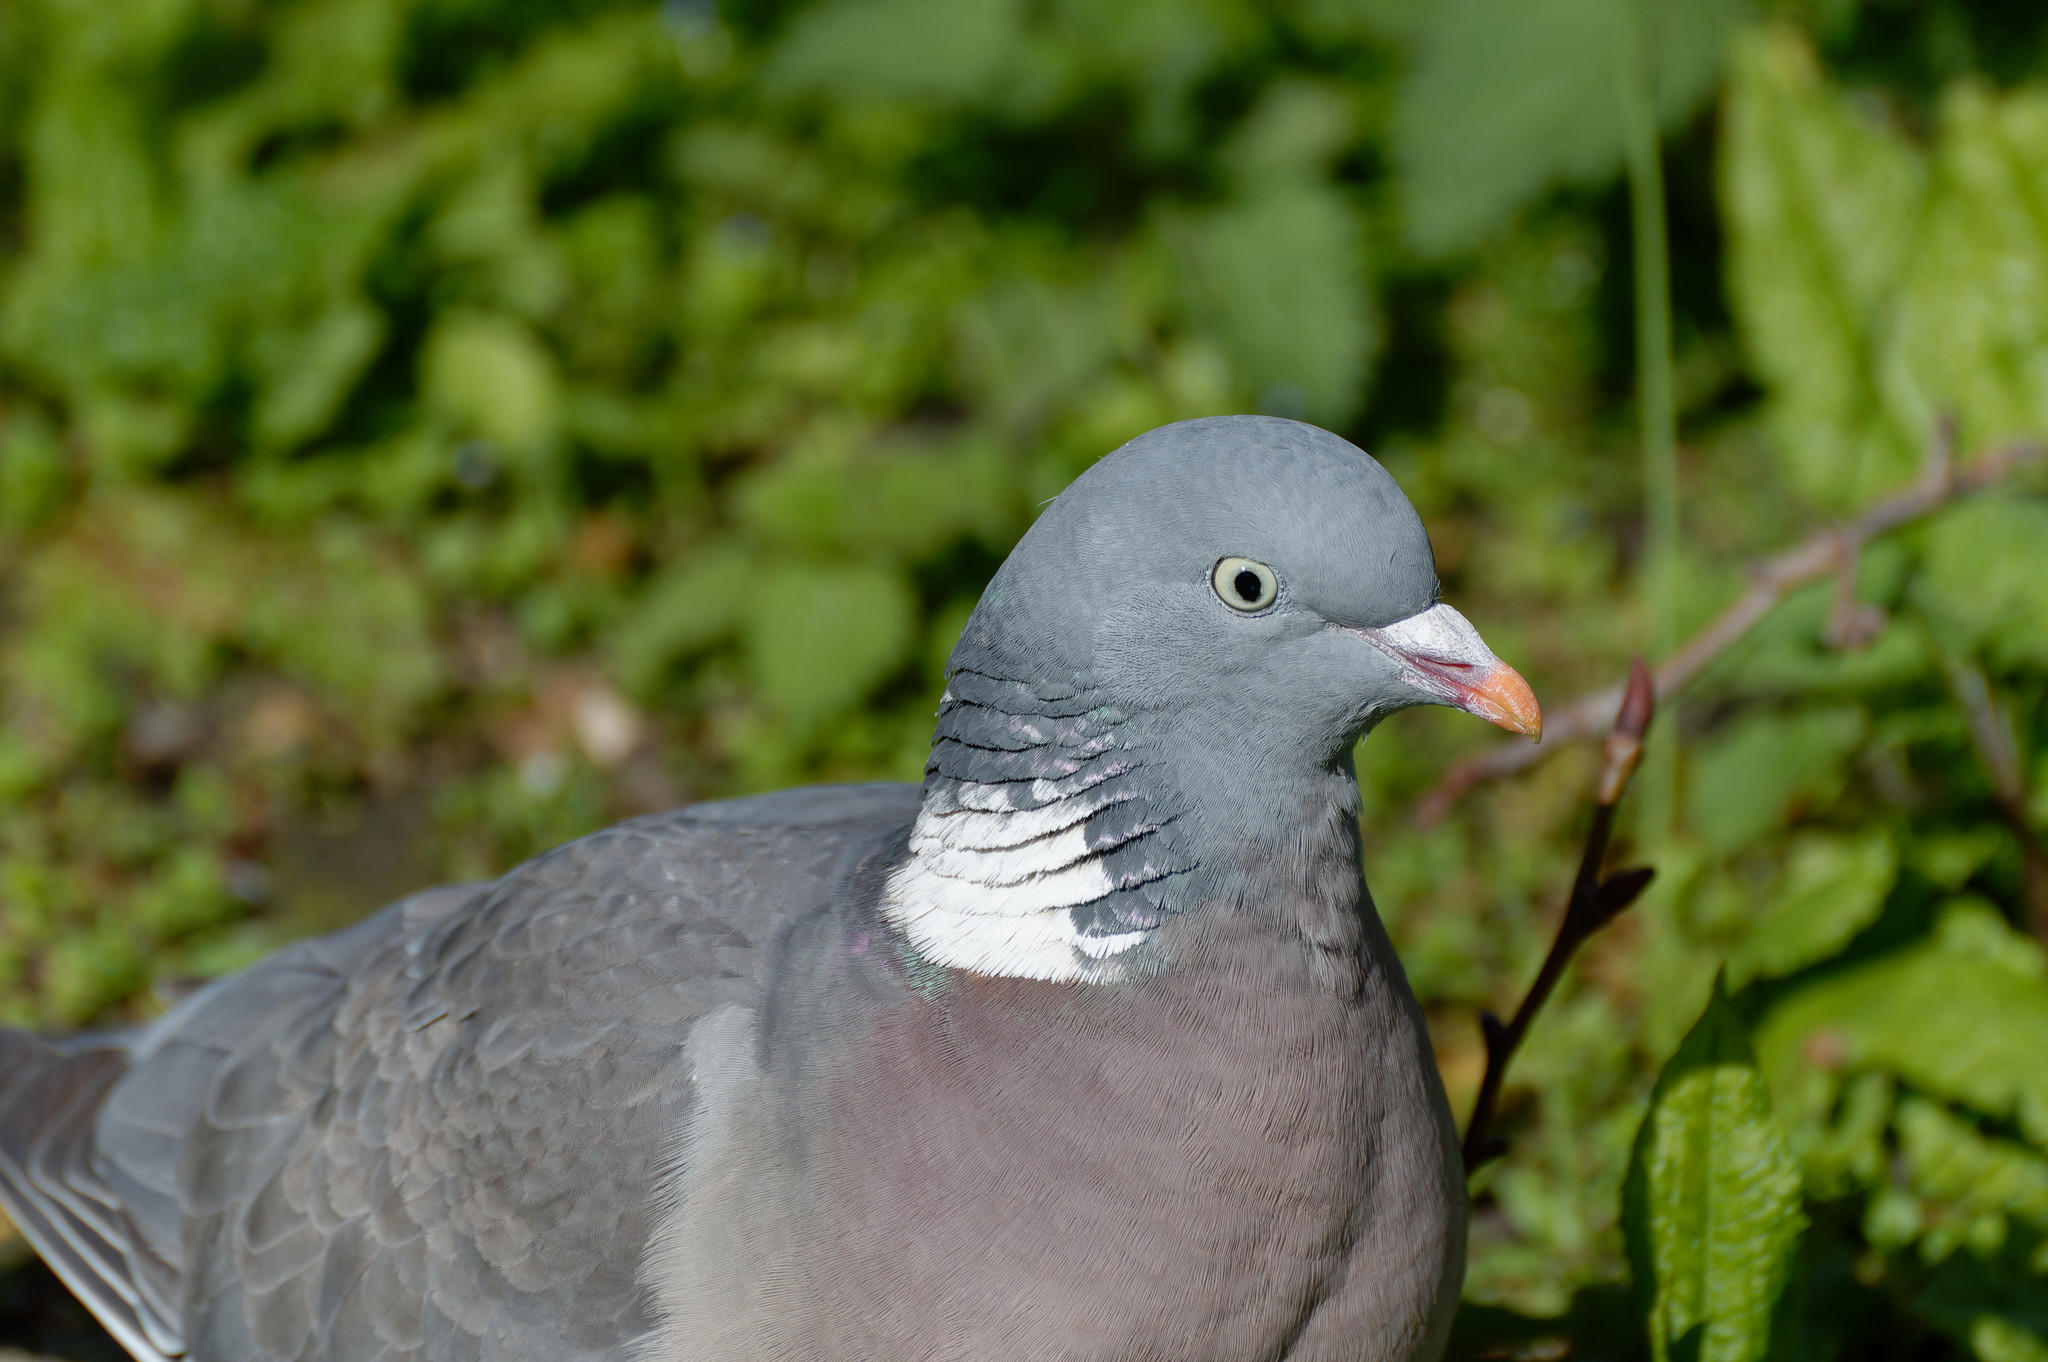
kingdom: Animalia
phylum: Chordata
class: Aves
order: Columbiformes
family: Columbidae
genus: Columba
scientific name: Columba palumbus
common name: Common wood pigeon
